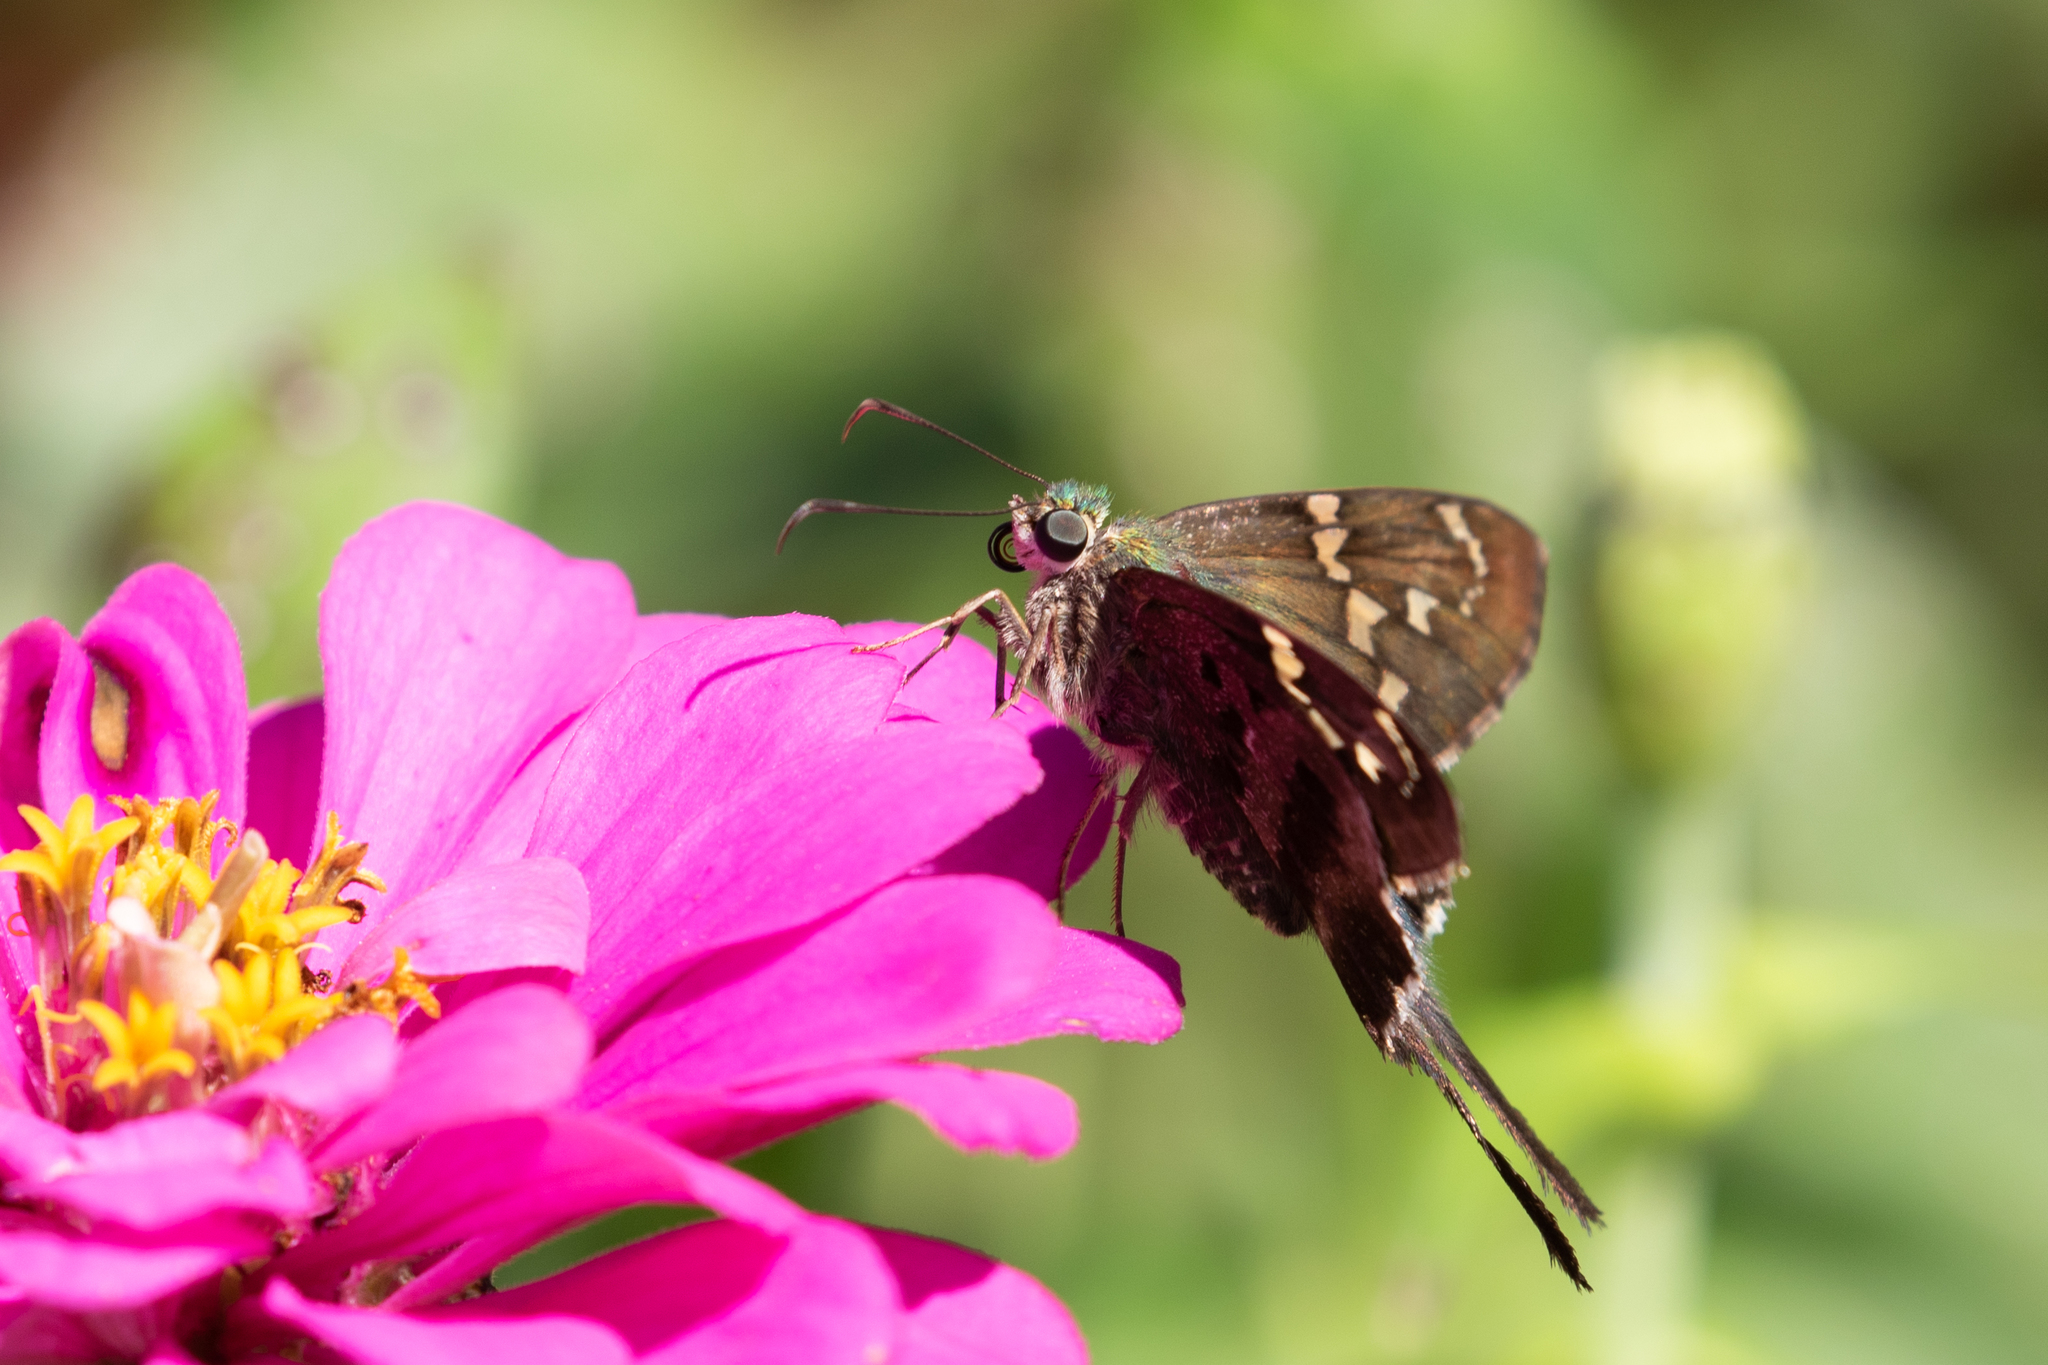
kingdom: Animalia
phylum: Arthropoda
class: Insecta
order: Lepidoptera
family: Hesperiidae
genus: Urbanus
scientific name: Urbanus proteus
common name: Long-tailed skipper
